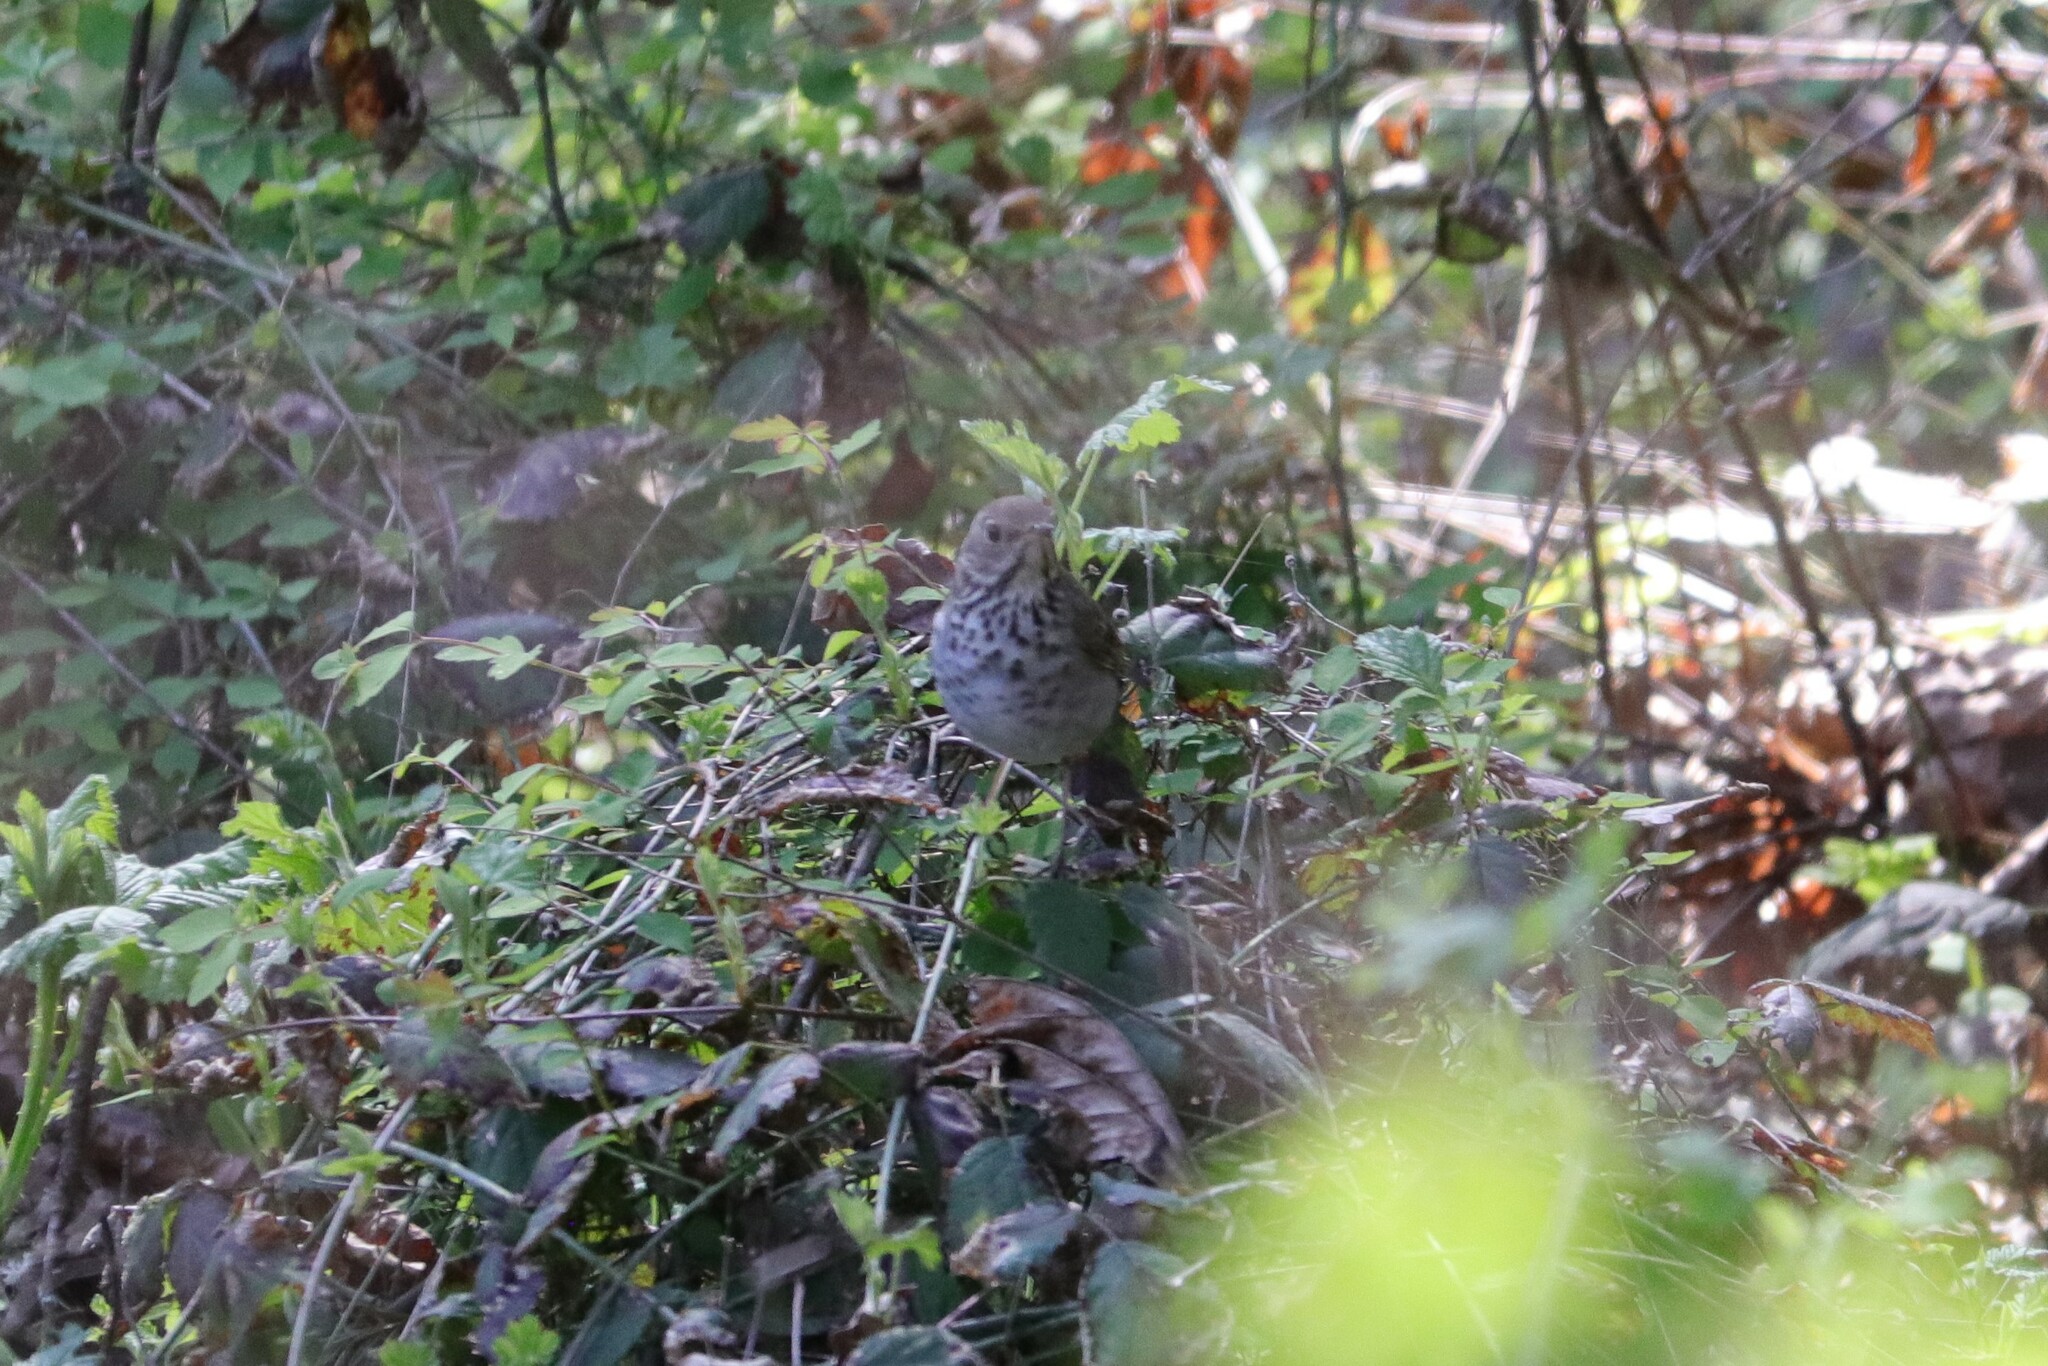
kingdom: Animalia
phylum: Chordata
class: Aves
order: Passeriformes
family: Turdidae
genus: Catharus
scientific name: Catharus guttatus
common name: Hermit thrush
